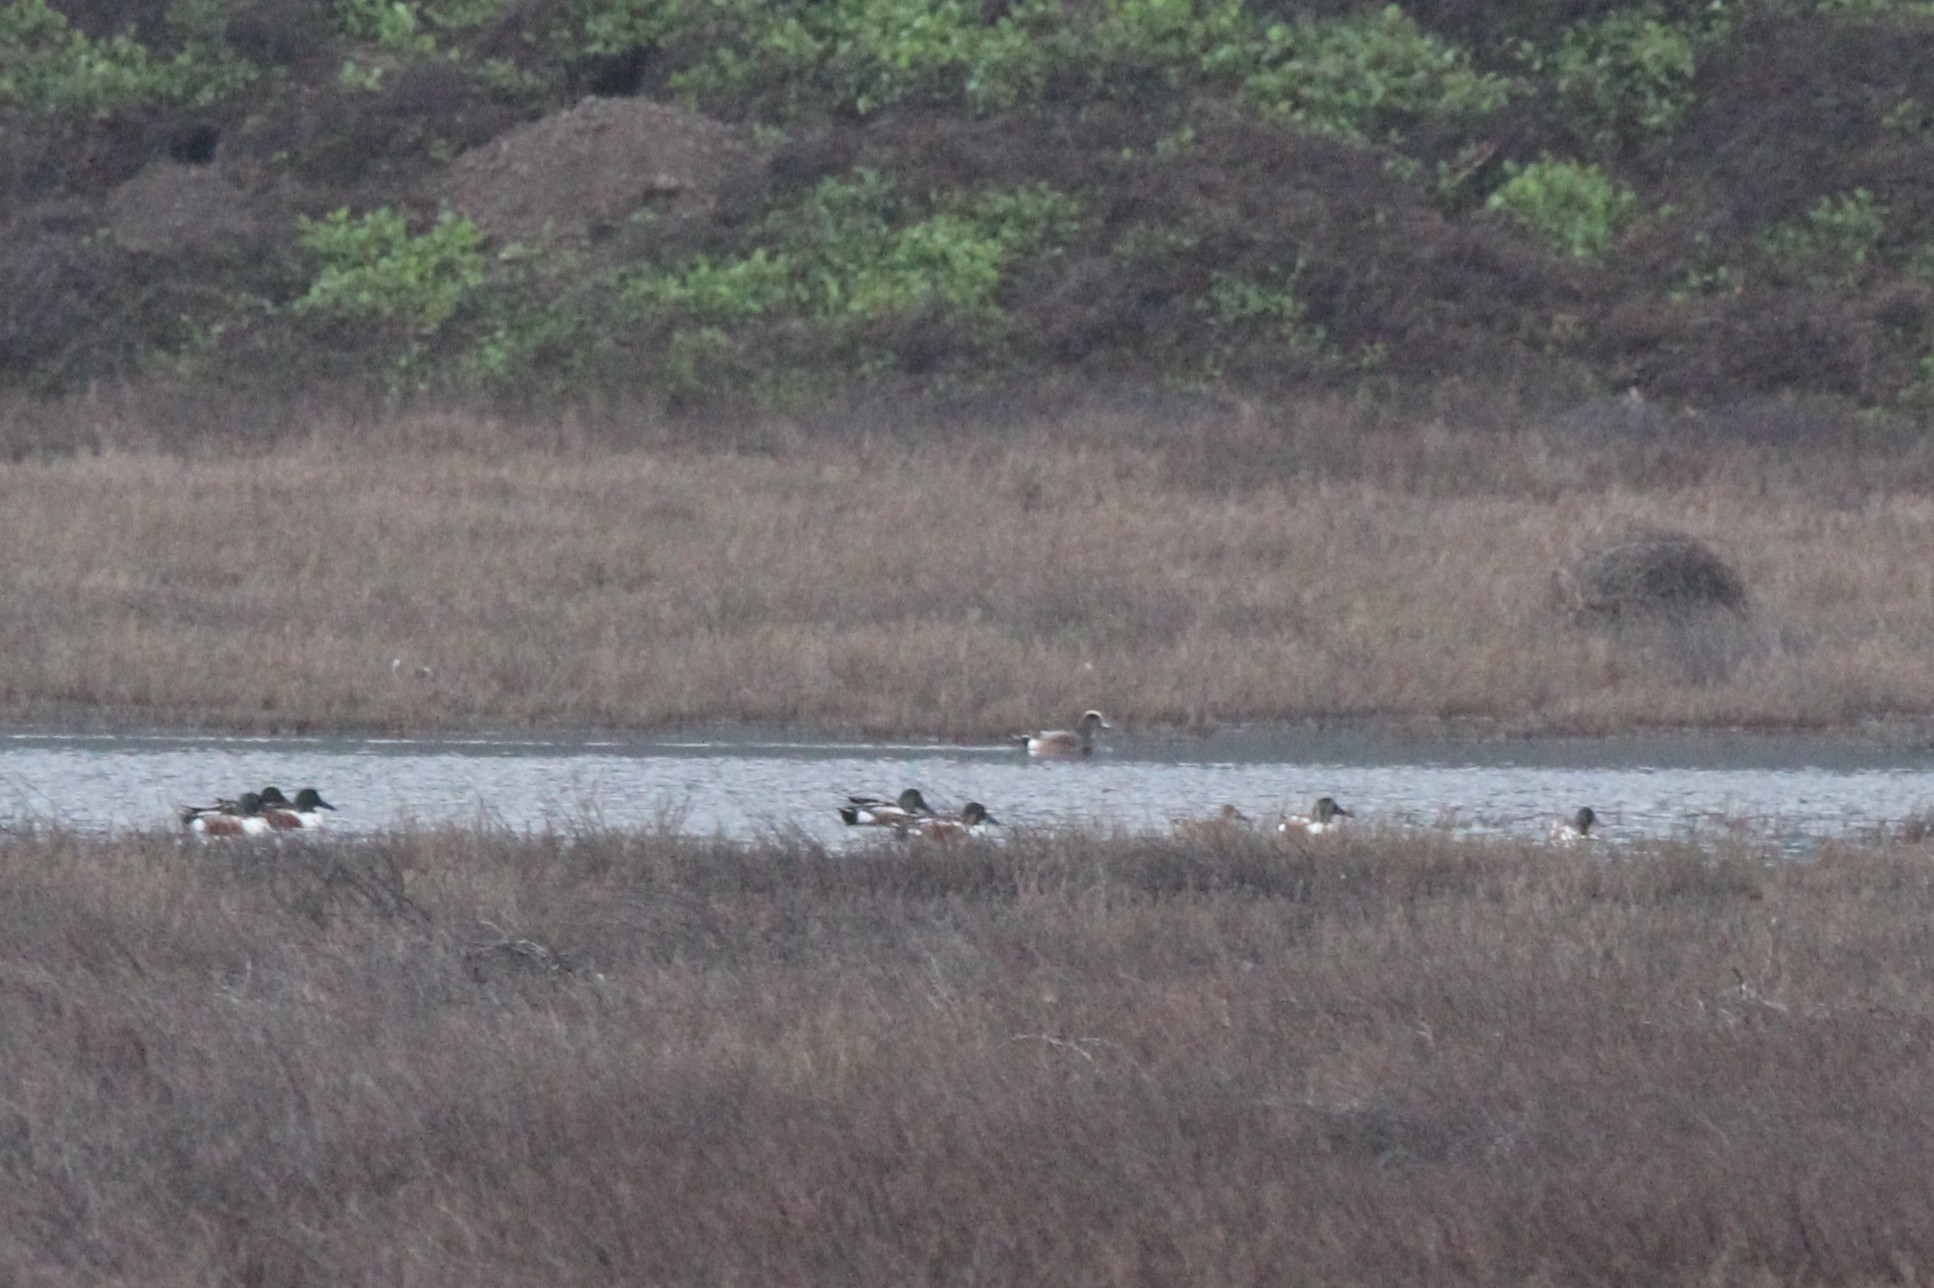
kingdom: Animalia
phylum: Chordata
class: Aves
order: Anseriformes
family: Anatidae
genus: Mareca
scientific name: Mareca americana
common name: American wigeon
